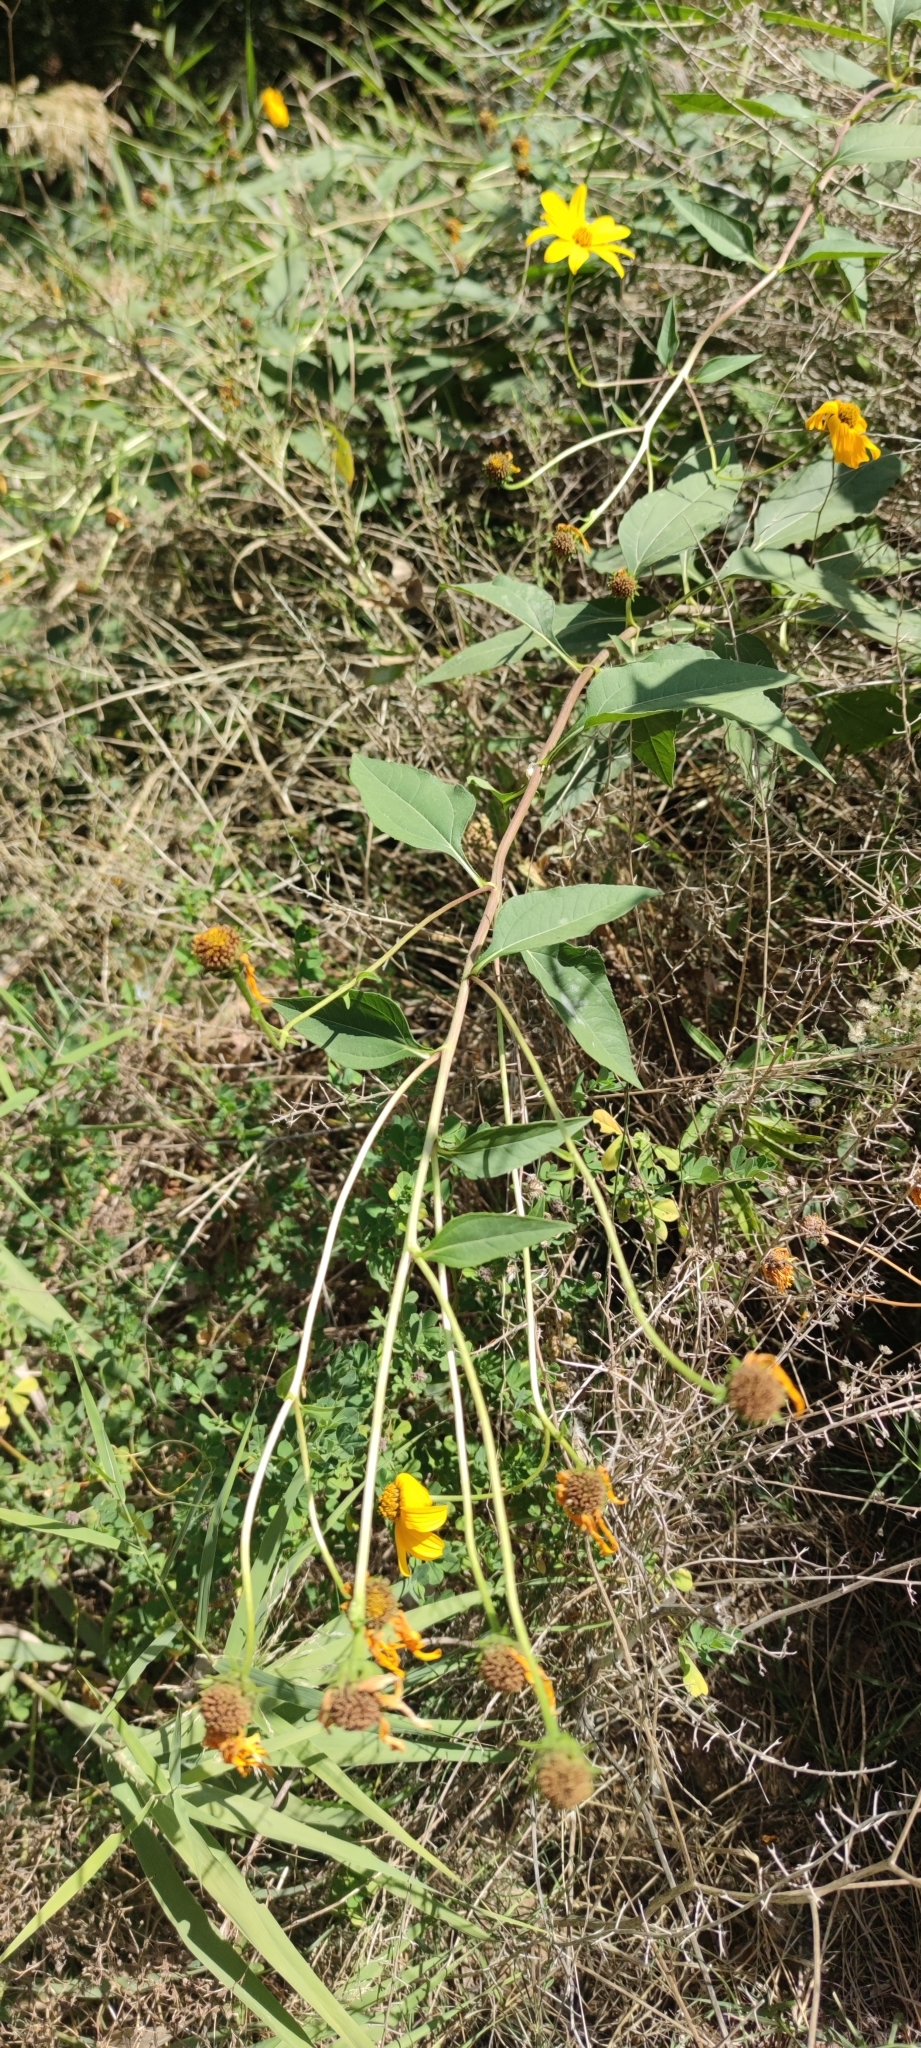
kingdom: Plantae
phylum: Tracheophyta
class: Magnoliopsida
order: Asterales
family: Asteraceae
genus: Helianthus
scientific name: Helianthus tuberosus
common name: Jerusalem artichoke
